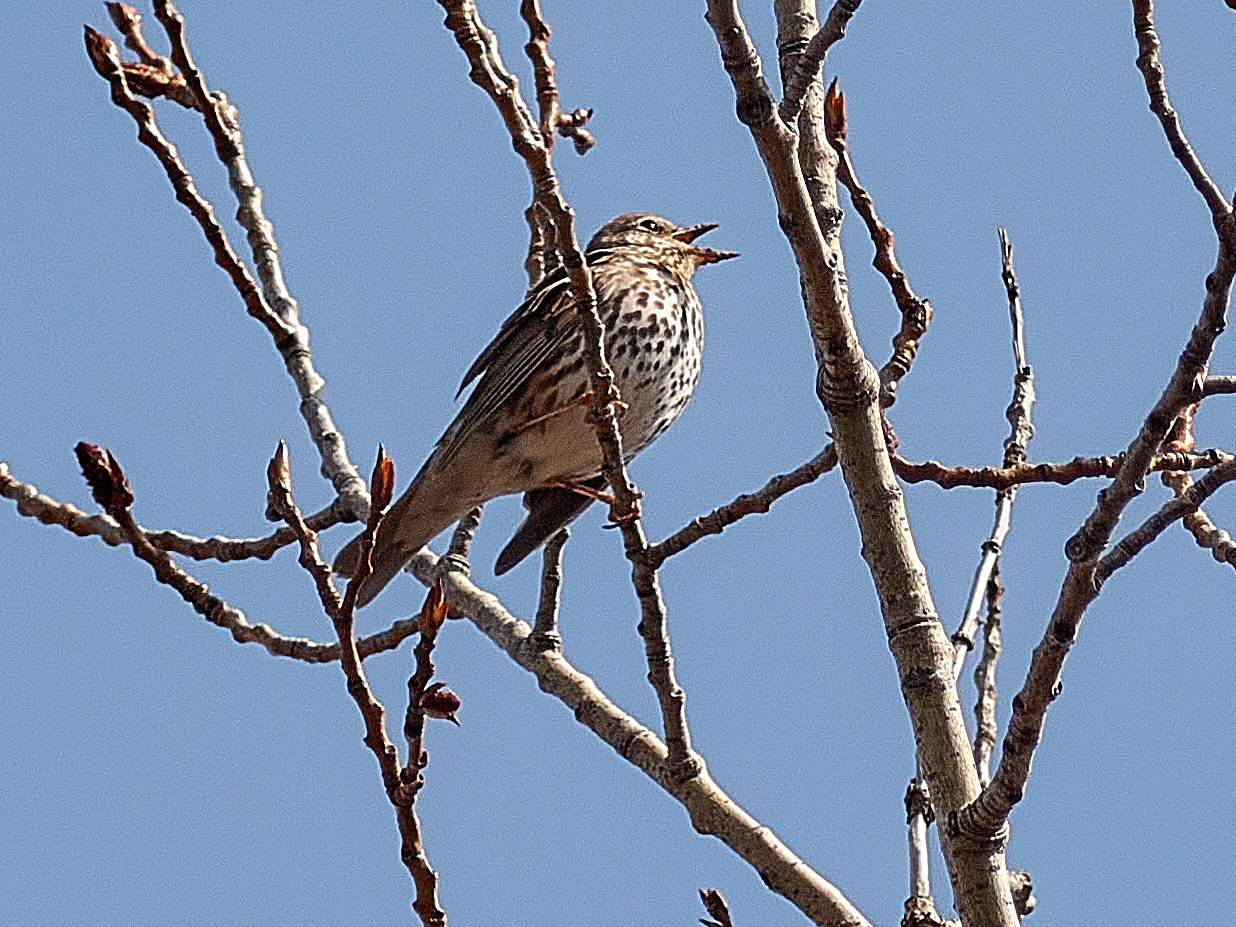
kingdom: Animalia
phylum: Chordata
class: Aves
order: Passeriformes
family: Turdidae
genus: Turdus
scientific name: Turdus philomelos
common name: Song thrush
